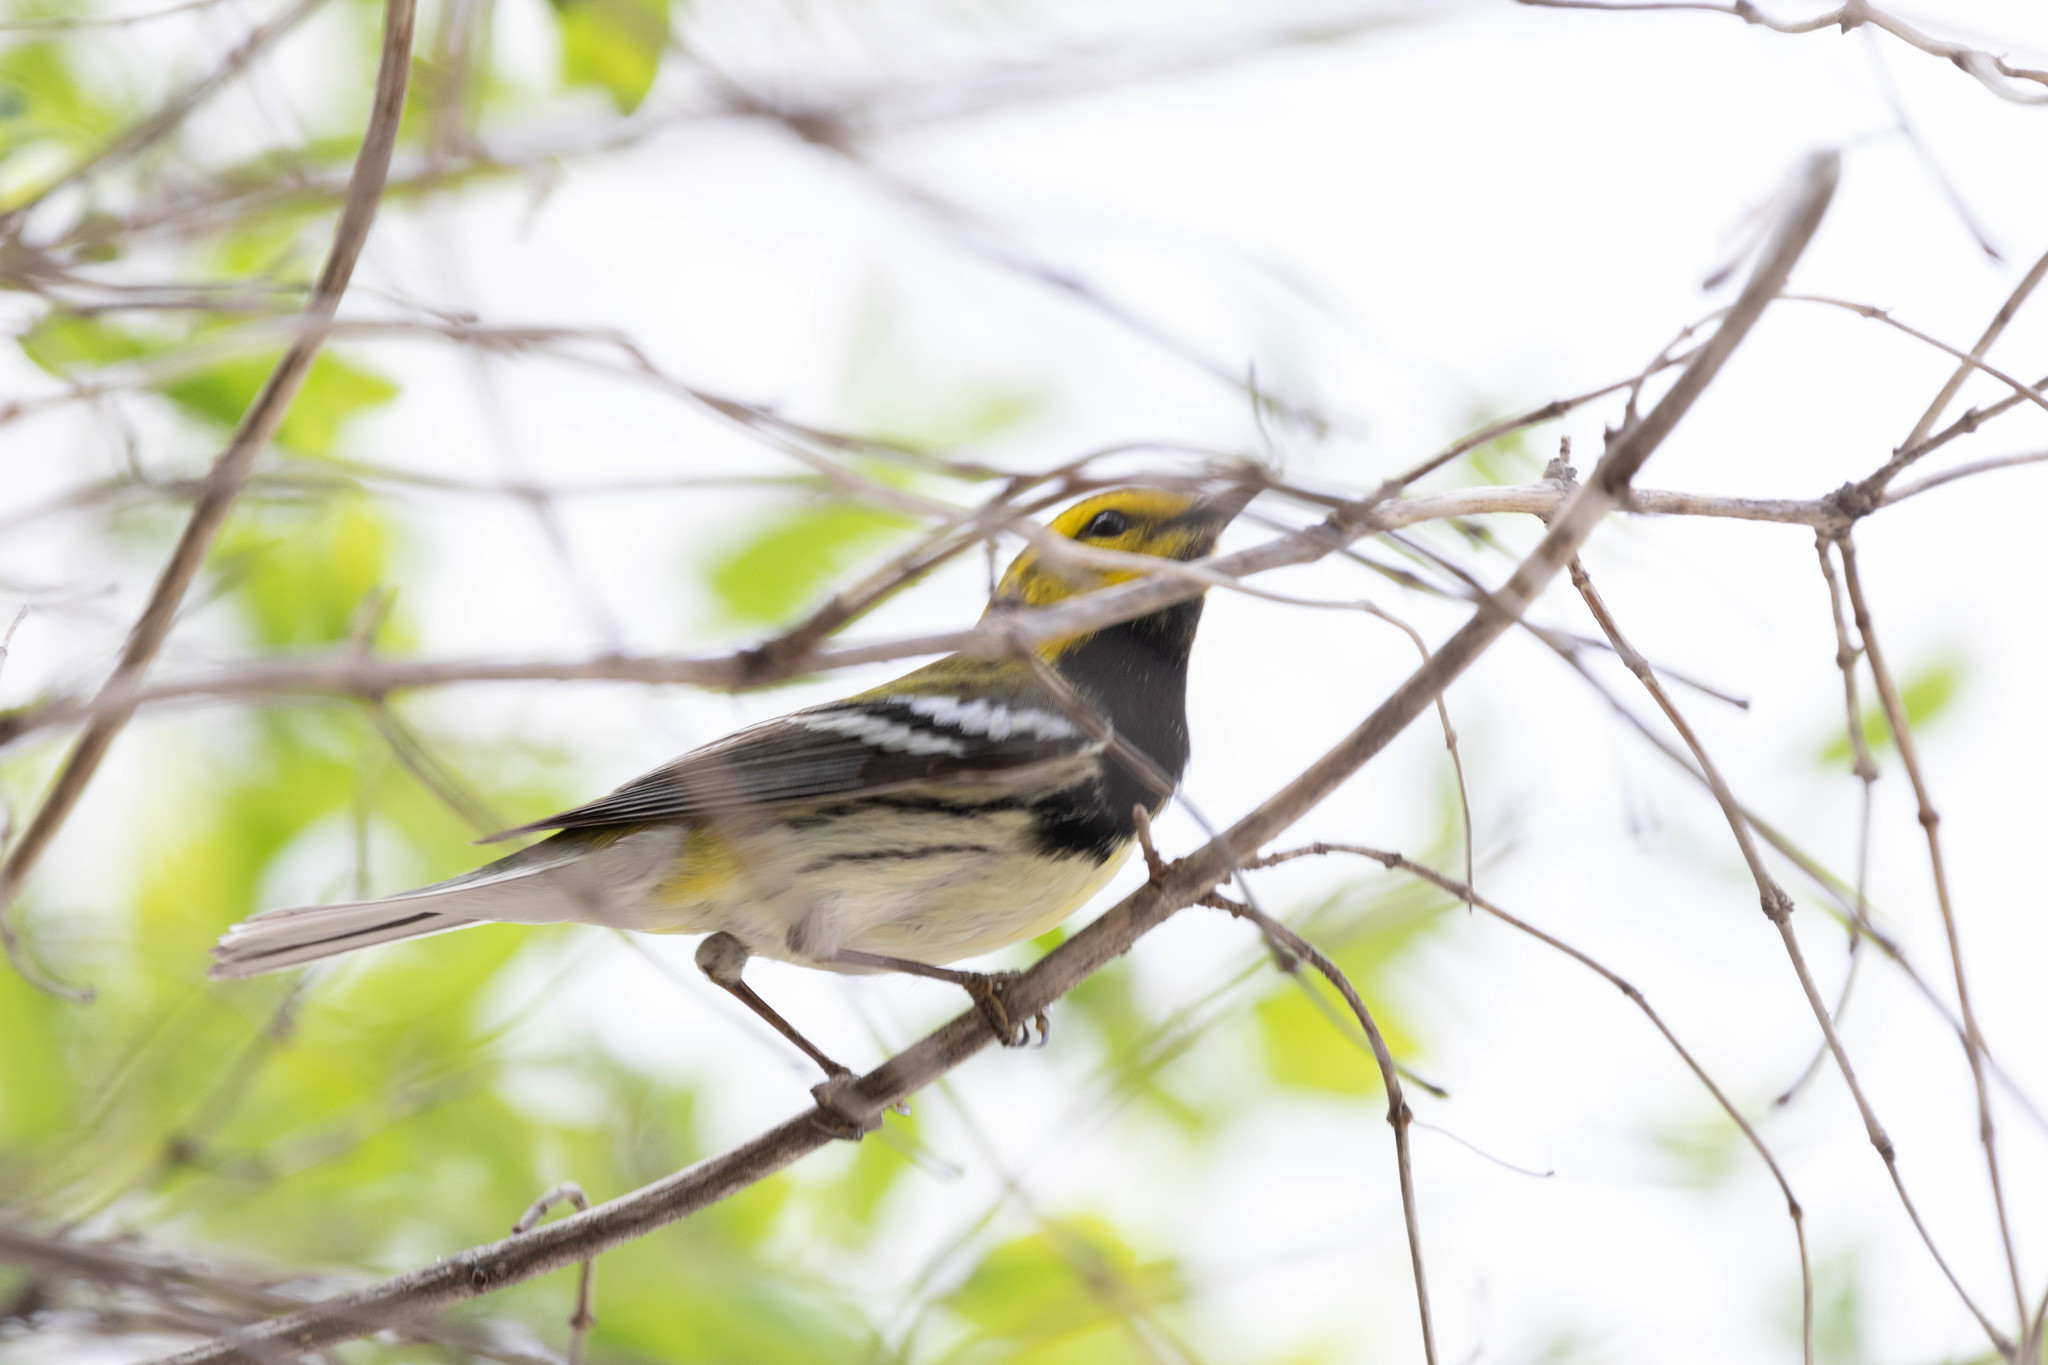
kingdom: Animalia
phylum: Chordata
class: Aves
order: Passeriformes
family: Parulidae
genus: Setophaga
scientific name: Setophaga virens
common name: Black-throated green warbler
